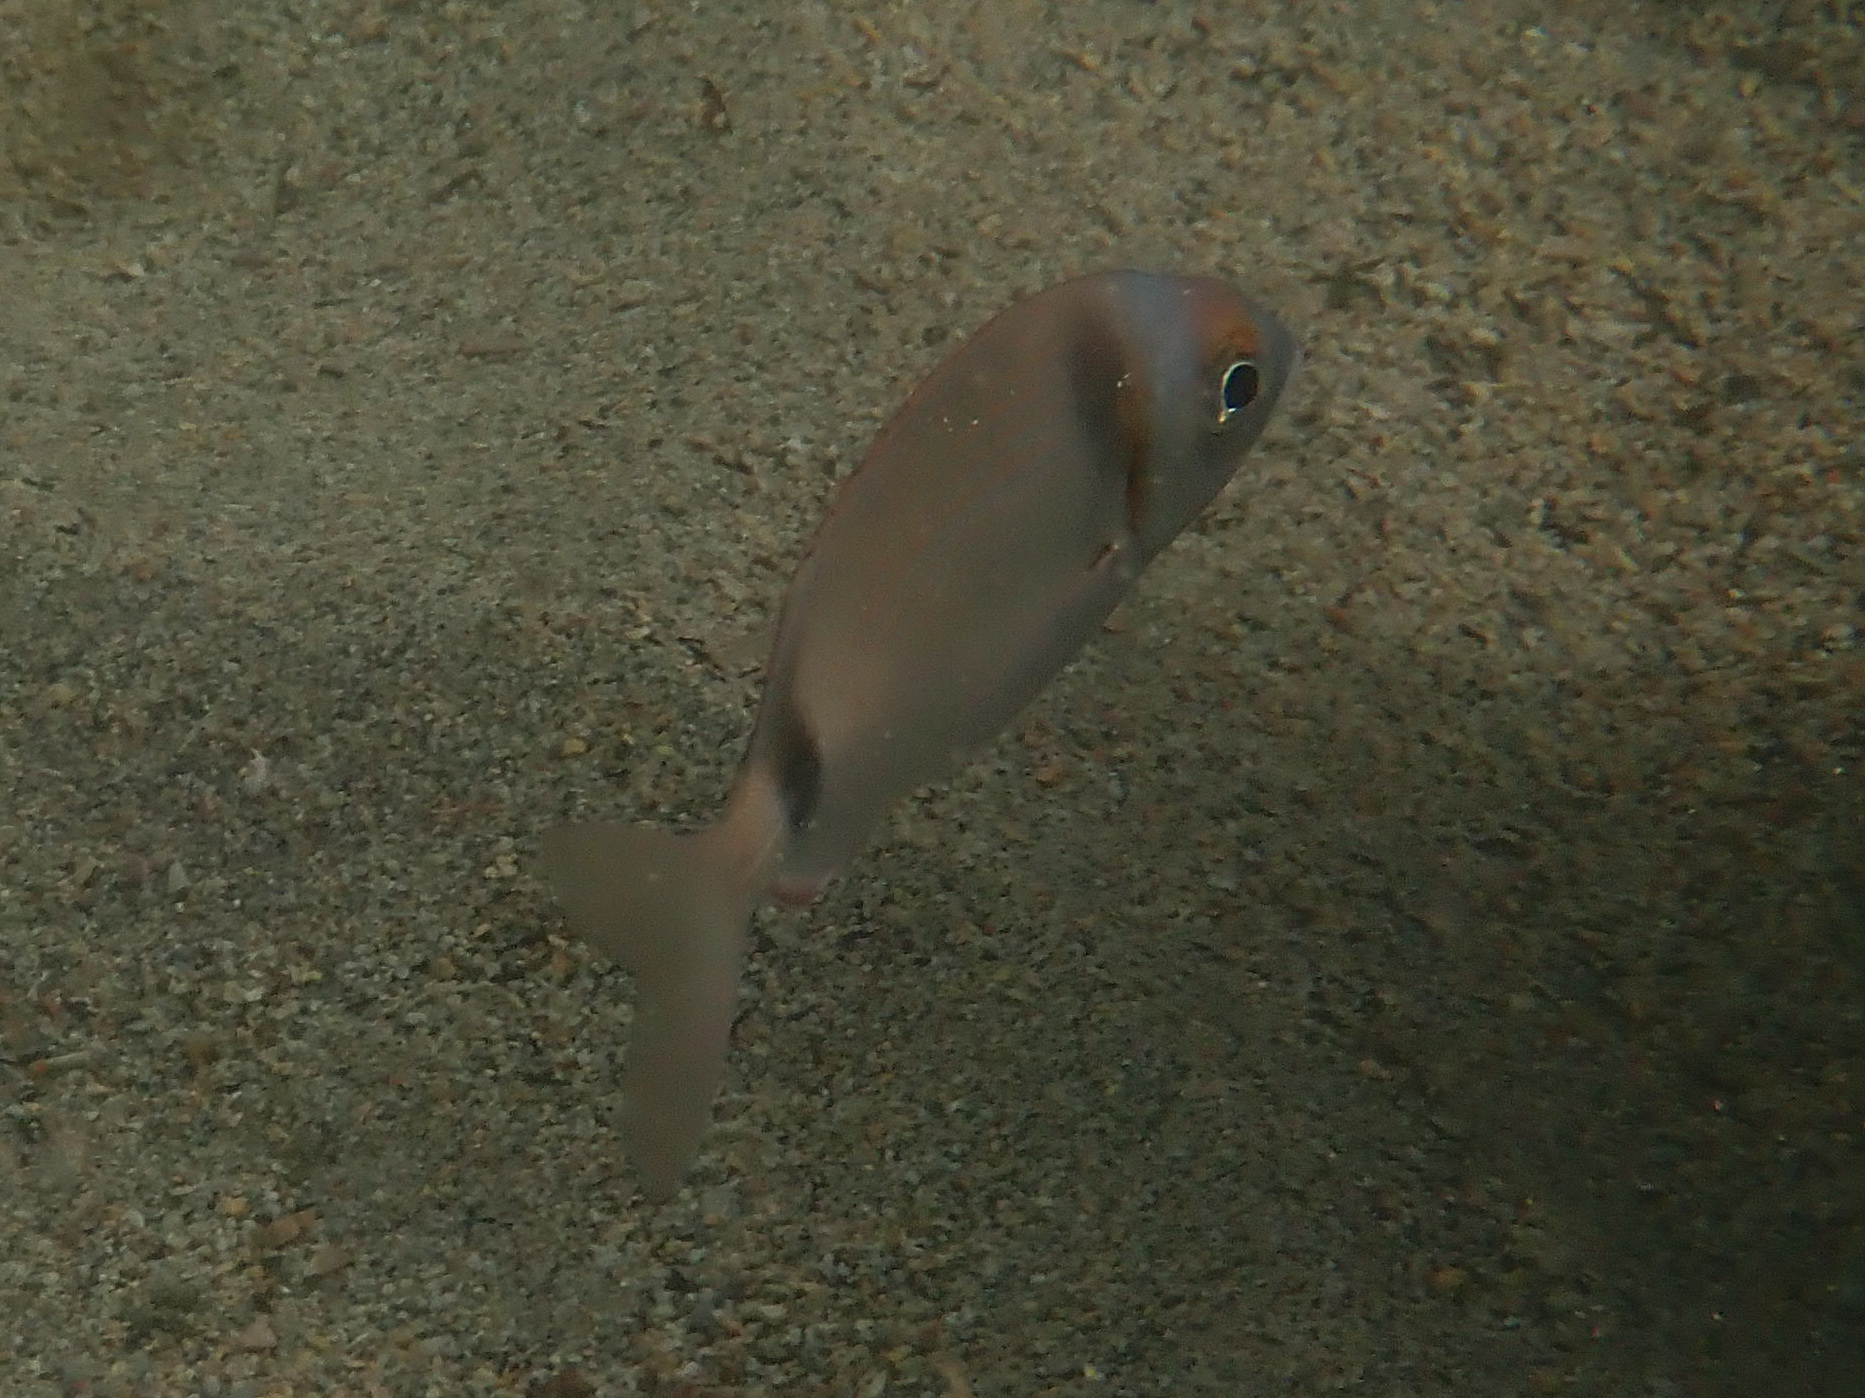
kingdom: Animalia
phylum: Chordata
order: Perciformes
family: Sparidae
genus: Diplodus
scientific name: Diplodus vulgaris
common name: Common two-banded seabream
